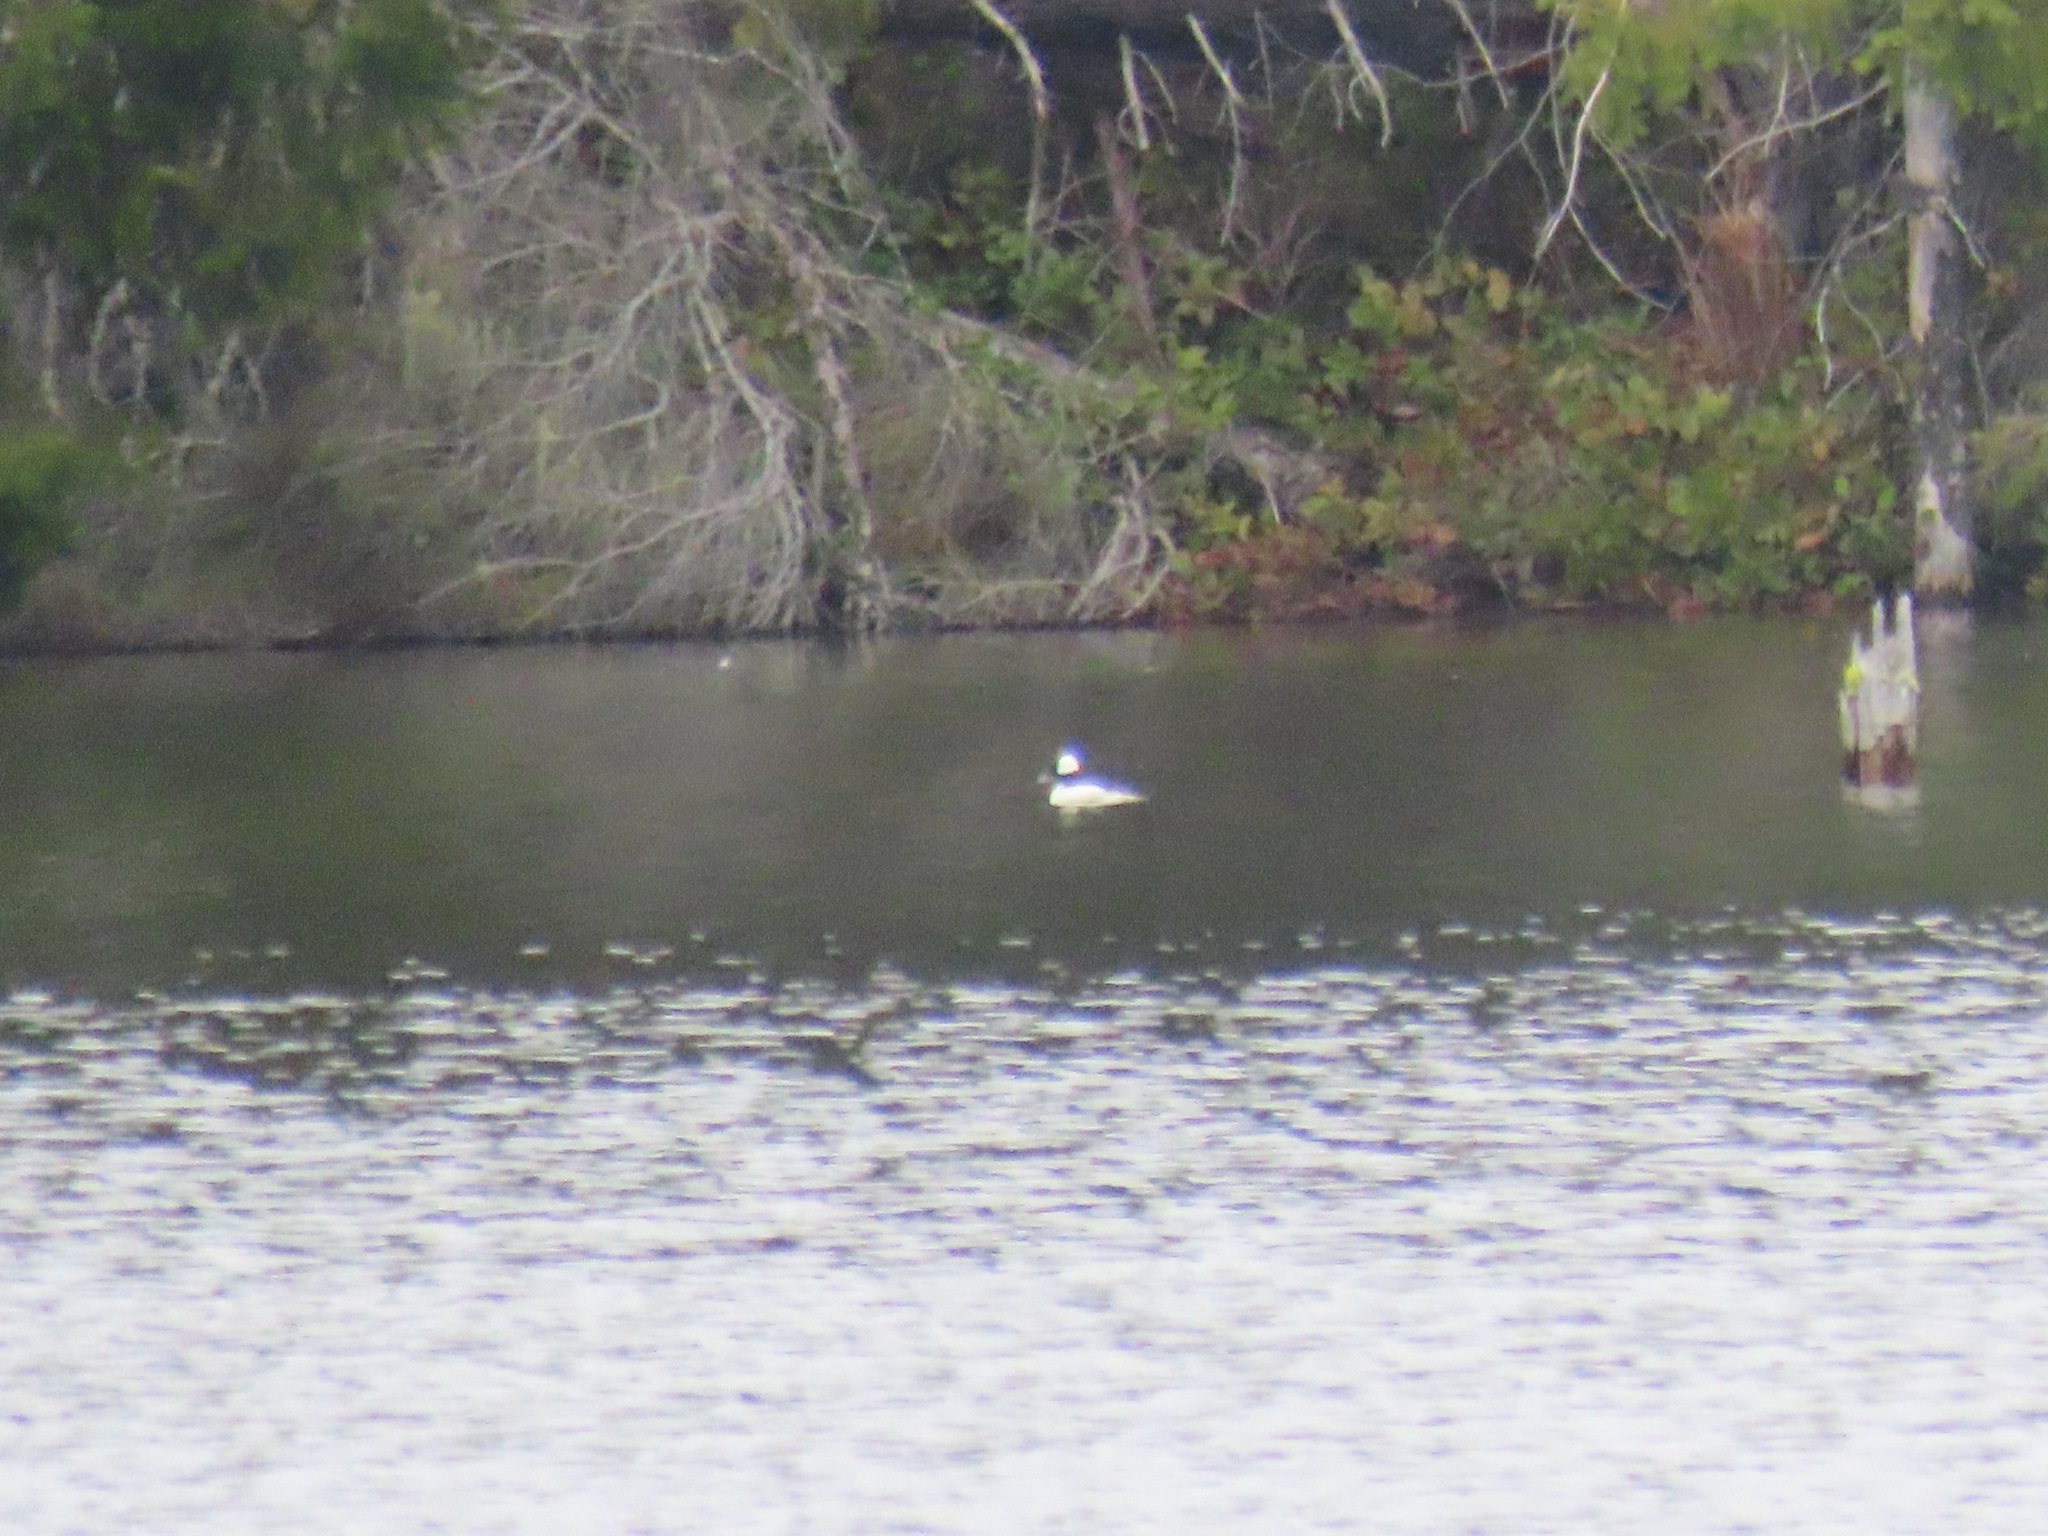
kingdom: Animalia
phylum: Chordata
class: Aves
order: Anseriformes
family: Anatidae
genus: Bucephala
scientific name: Bucephala albeola
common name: Bufflehead
